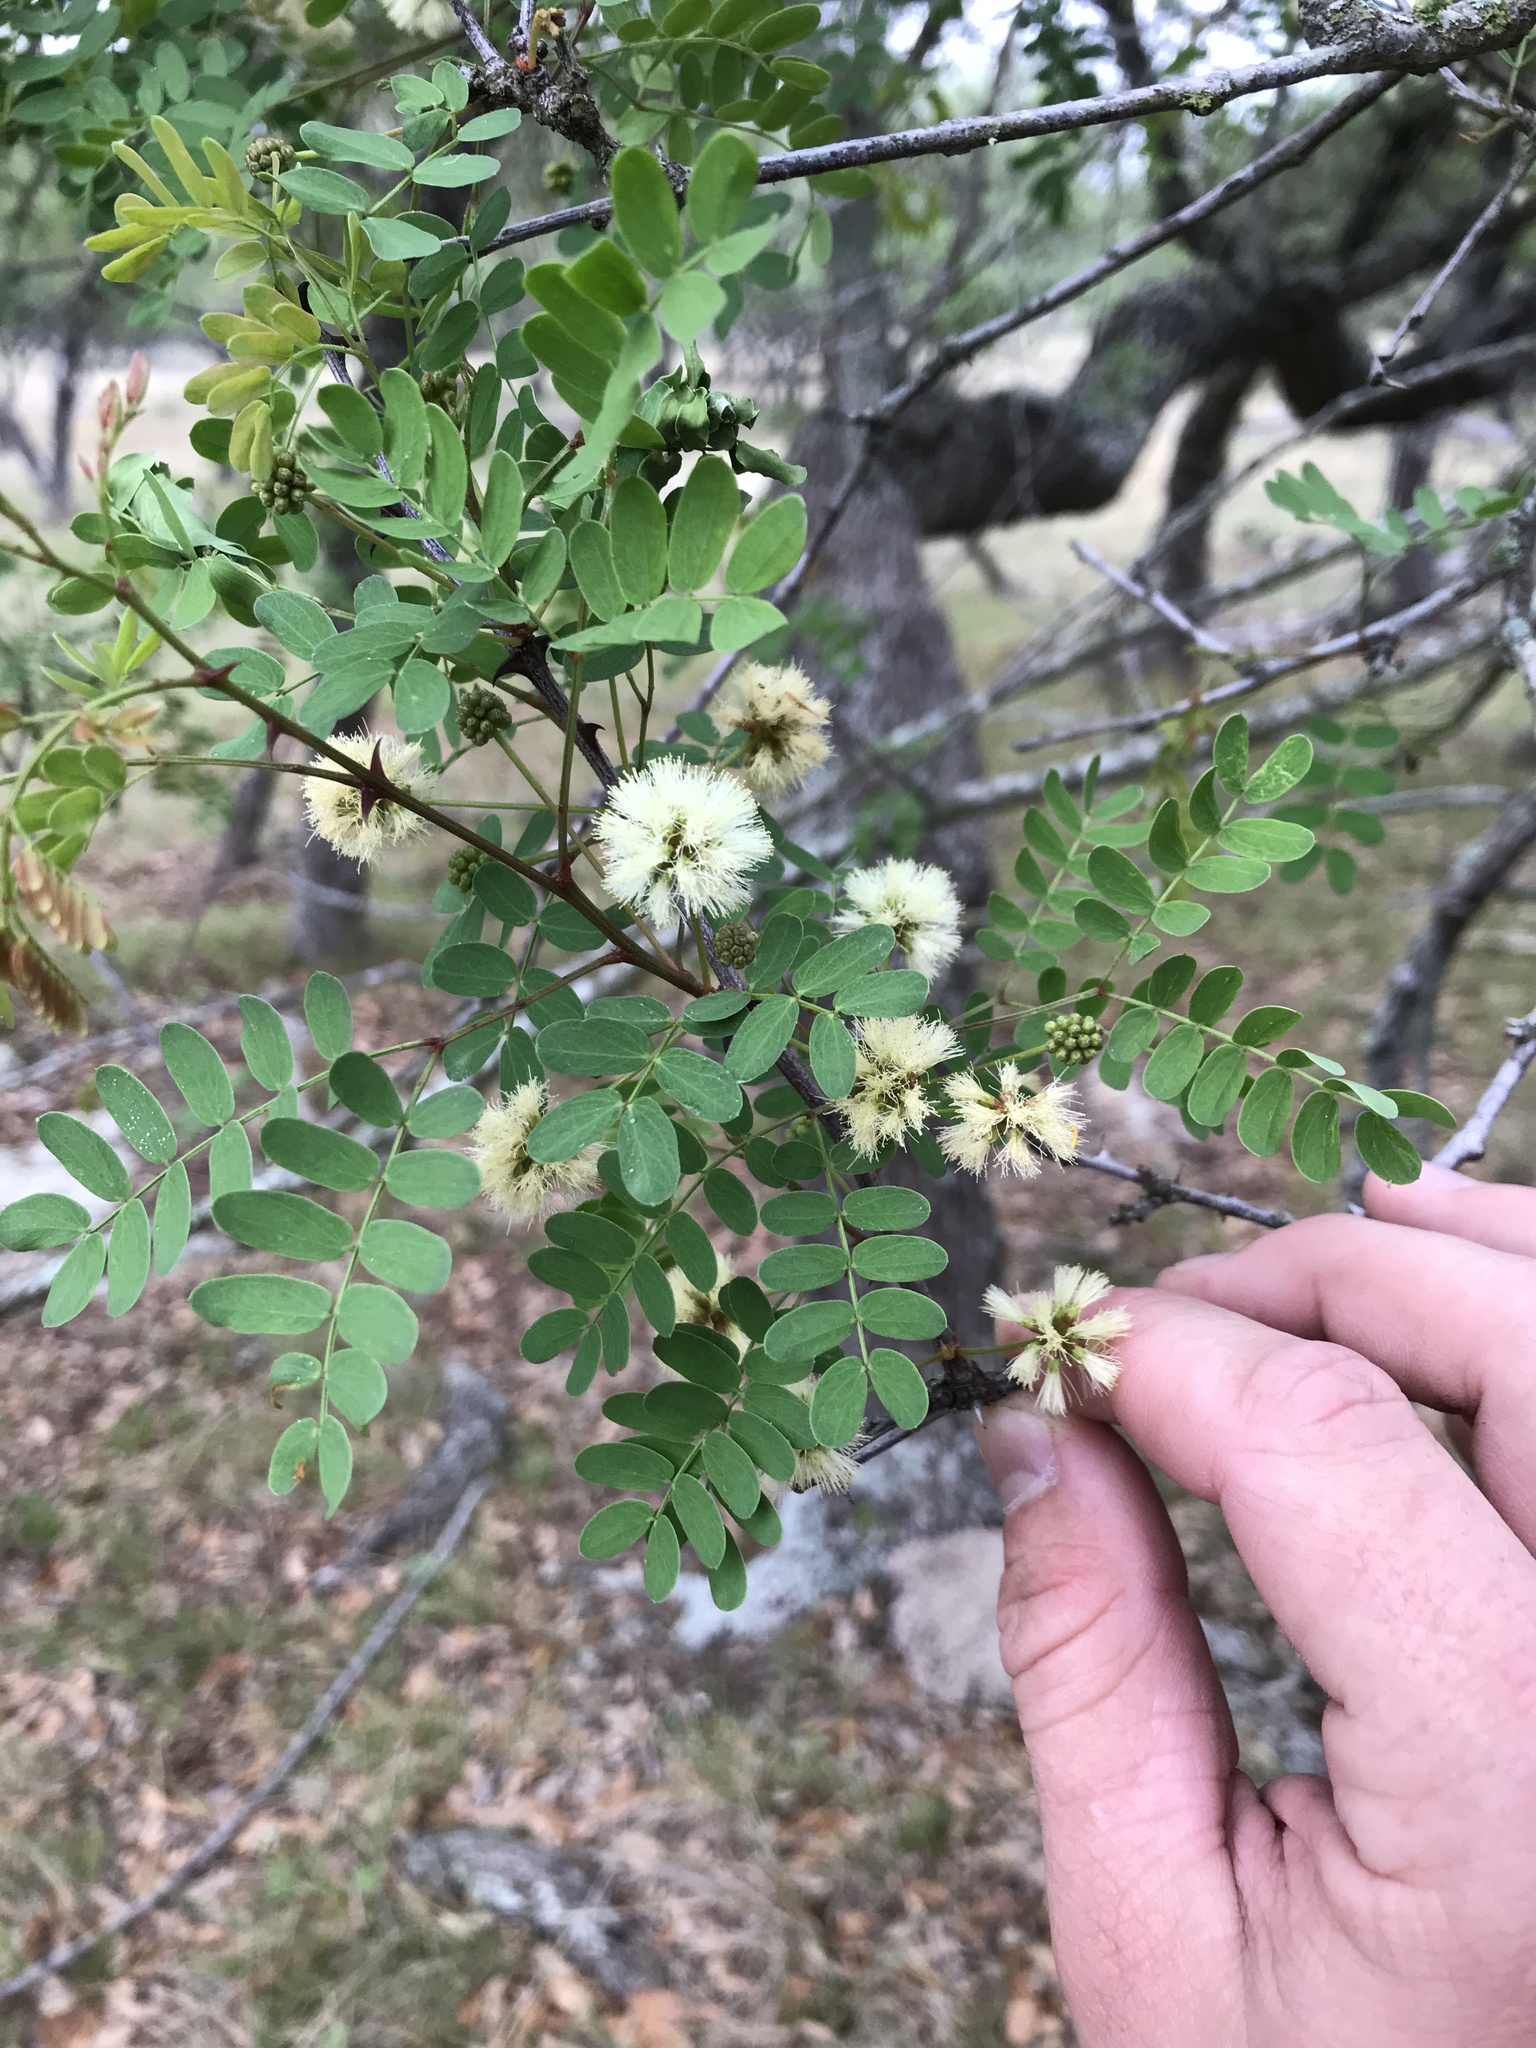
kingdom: Plantae
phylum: Tracheophyta
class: Magnoliopsida
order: Fabales
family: Fabaceae
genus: Senegalia
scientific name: Senegalia roemeriana
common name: Roemer's acacia
